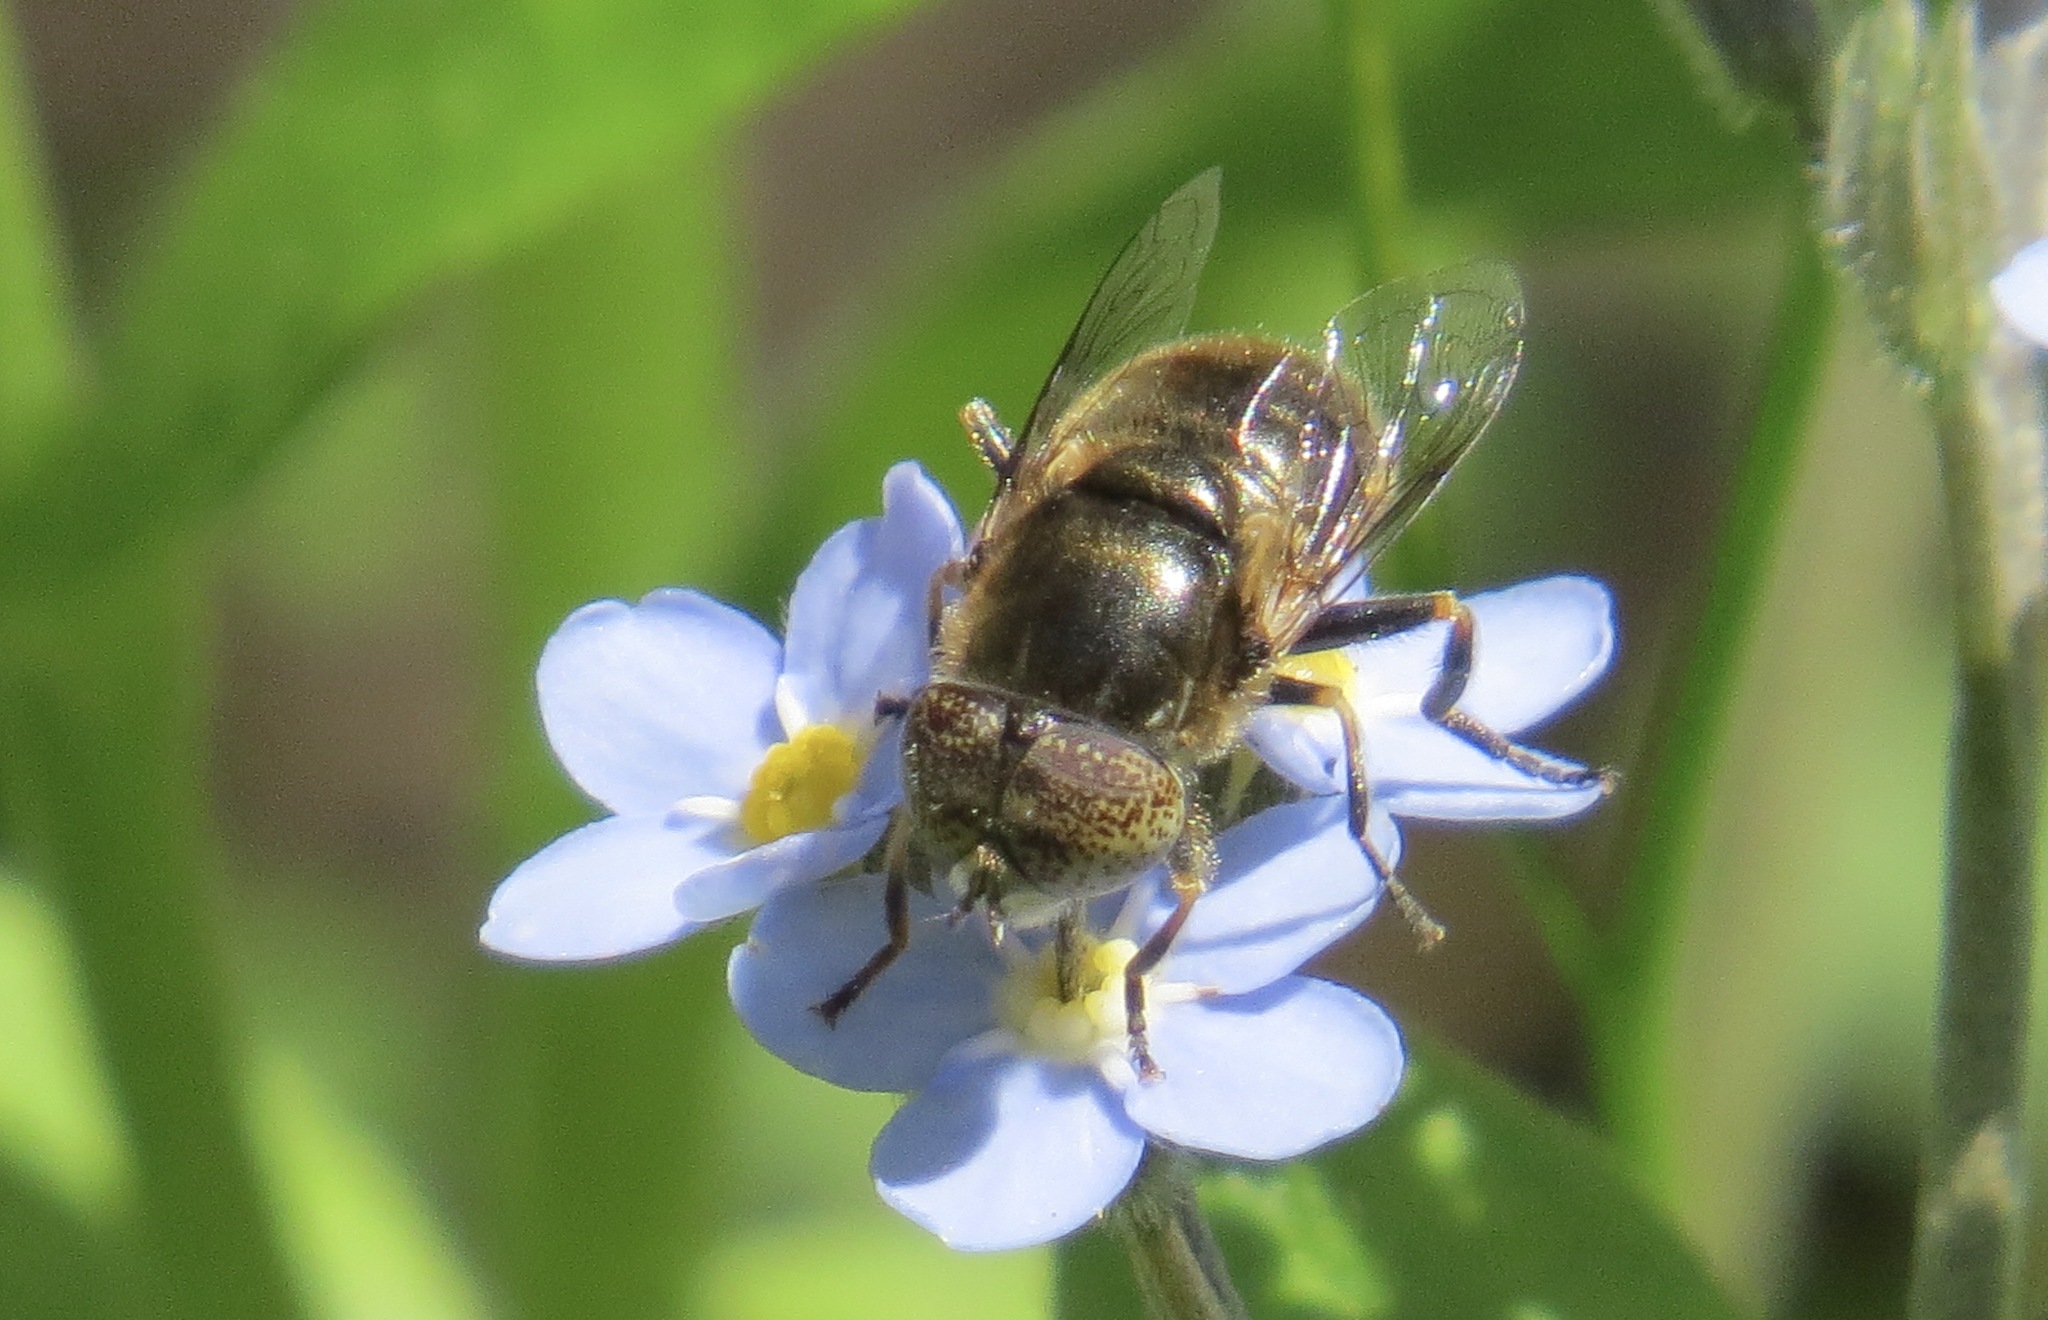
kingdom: Animalia
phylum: Arthropoda
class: Insecta
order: Diptera
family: Syrphidae
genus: Eristalinus
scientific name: Eristalinus aeneus
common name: Syrphid fly
